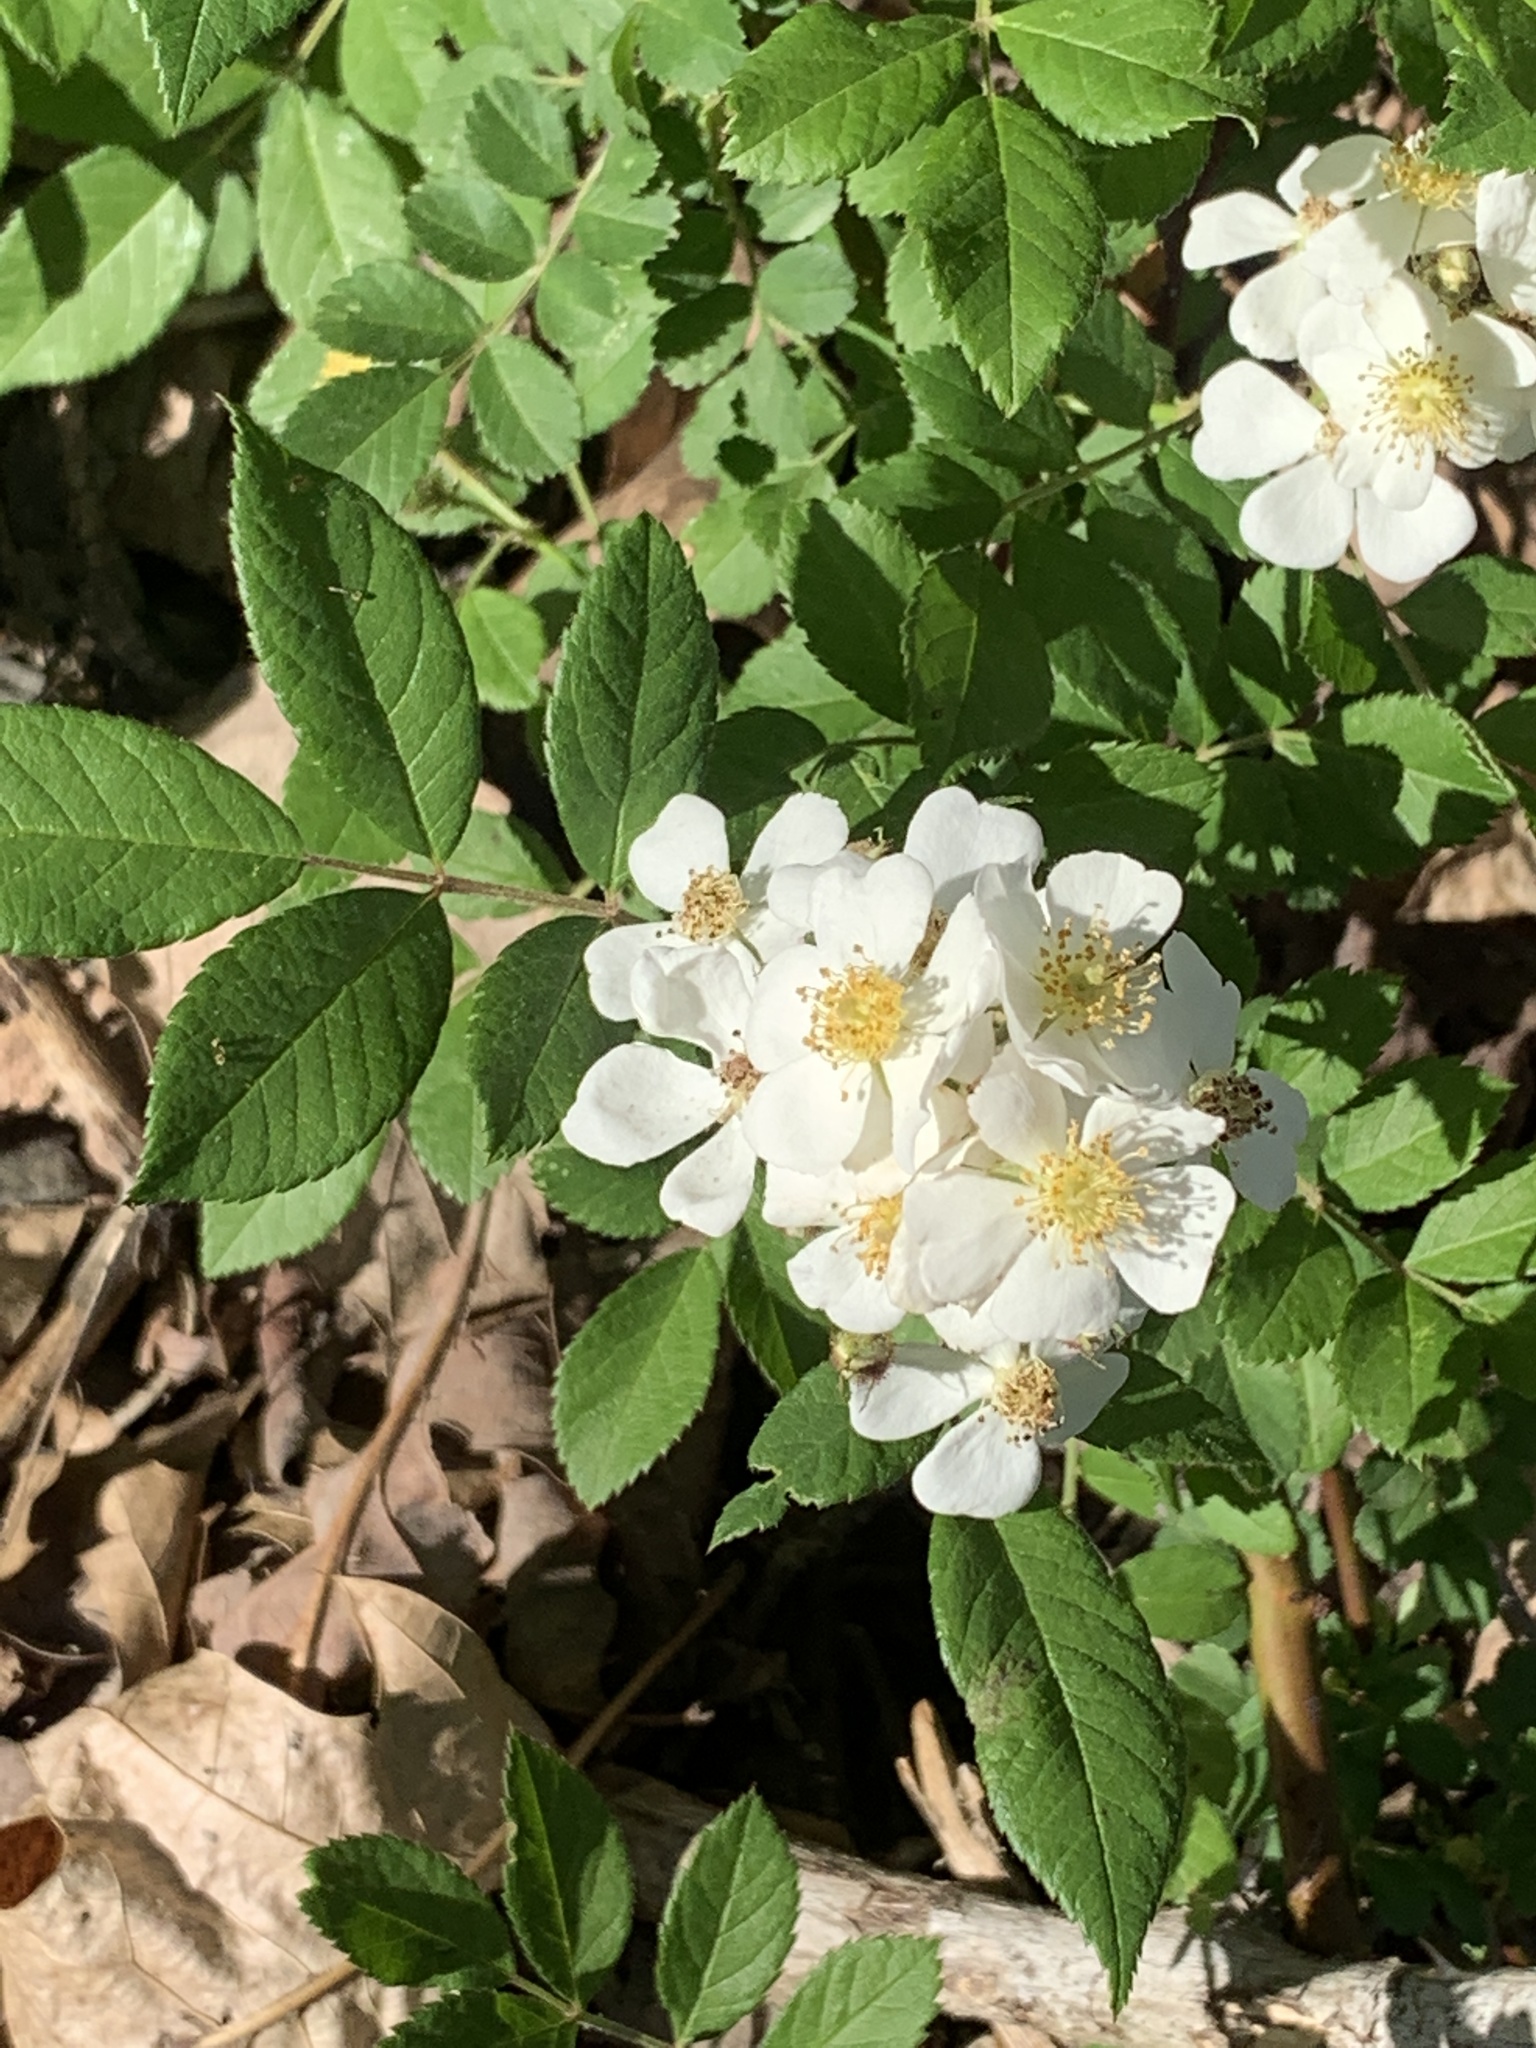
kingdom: Plantae
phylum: Tracheophyta
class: Magnoliopsida
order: Rosales
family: Rosaceae
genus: Rosa
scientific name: Rosa multiflora
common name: Multiflora rose
